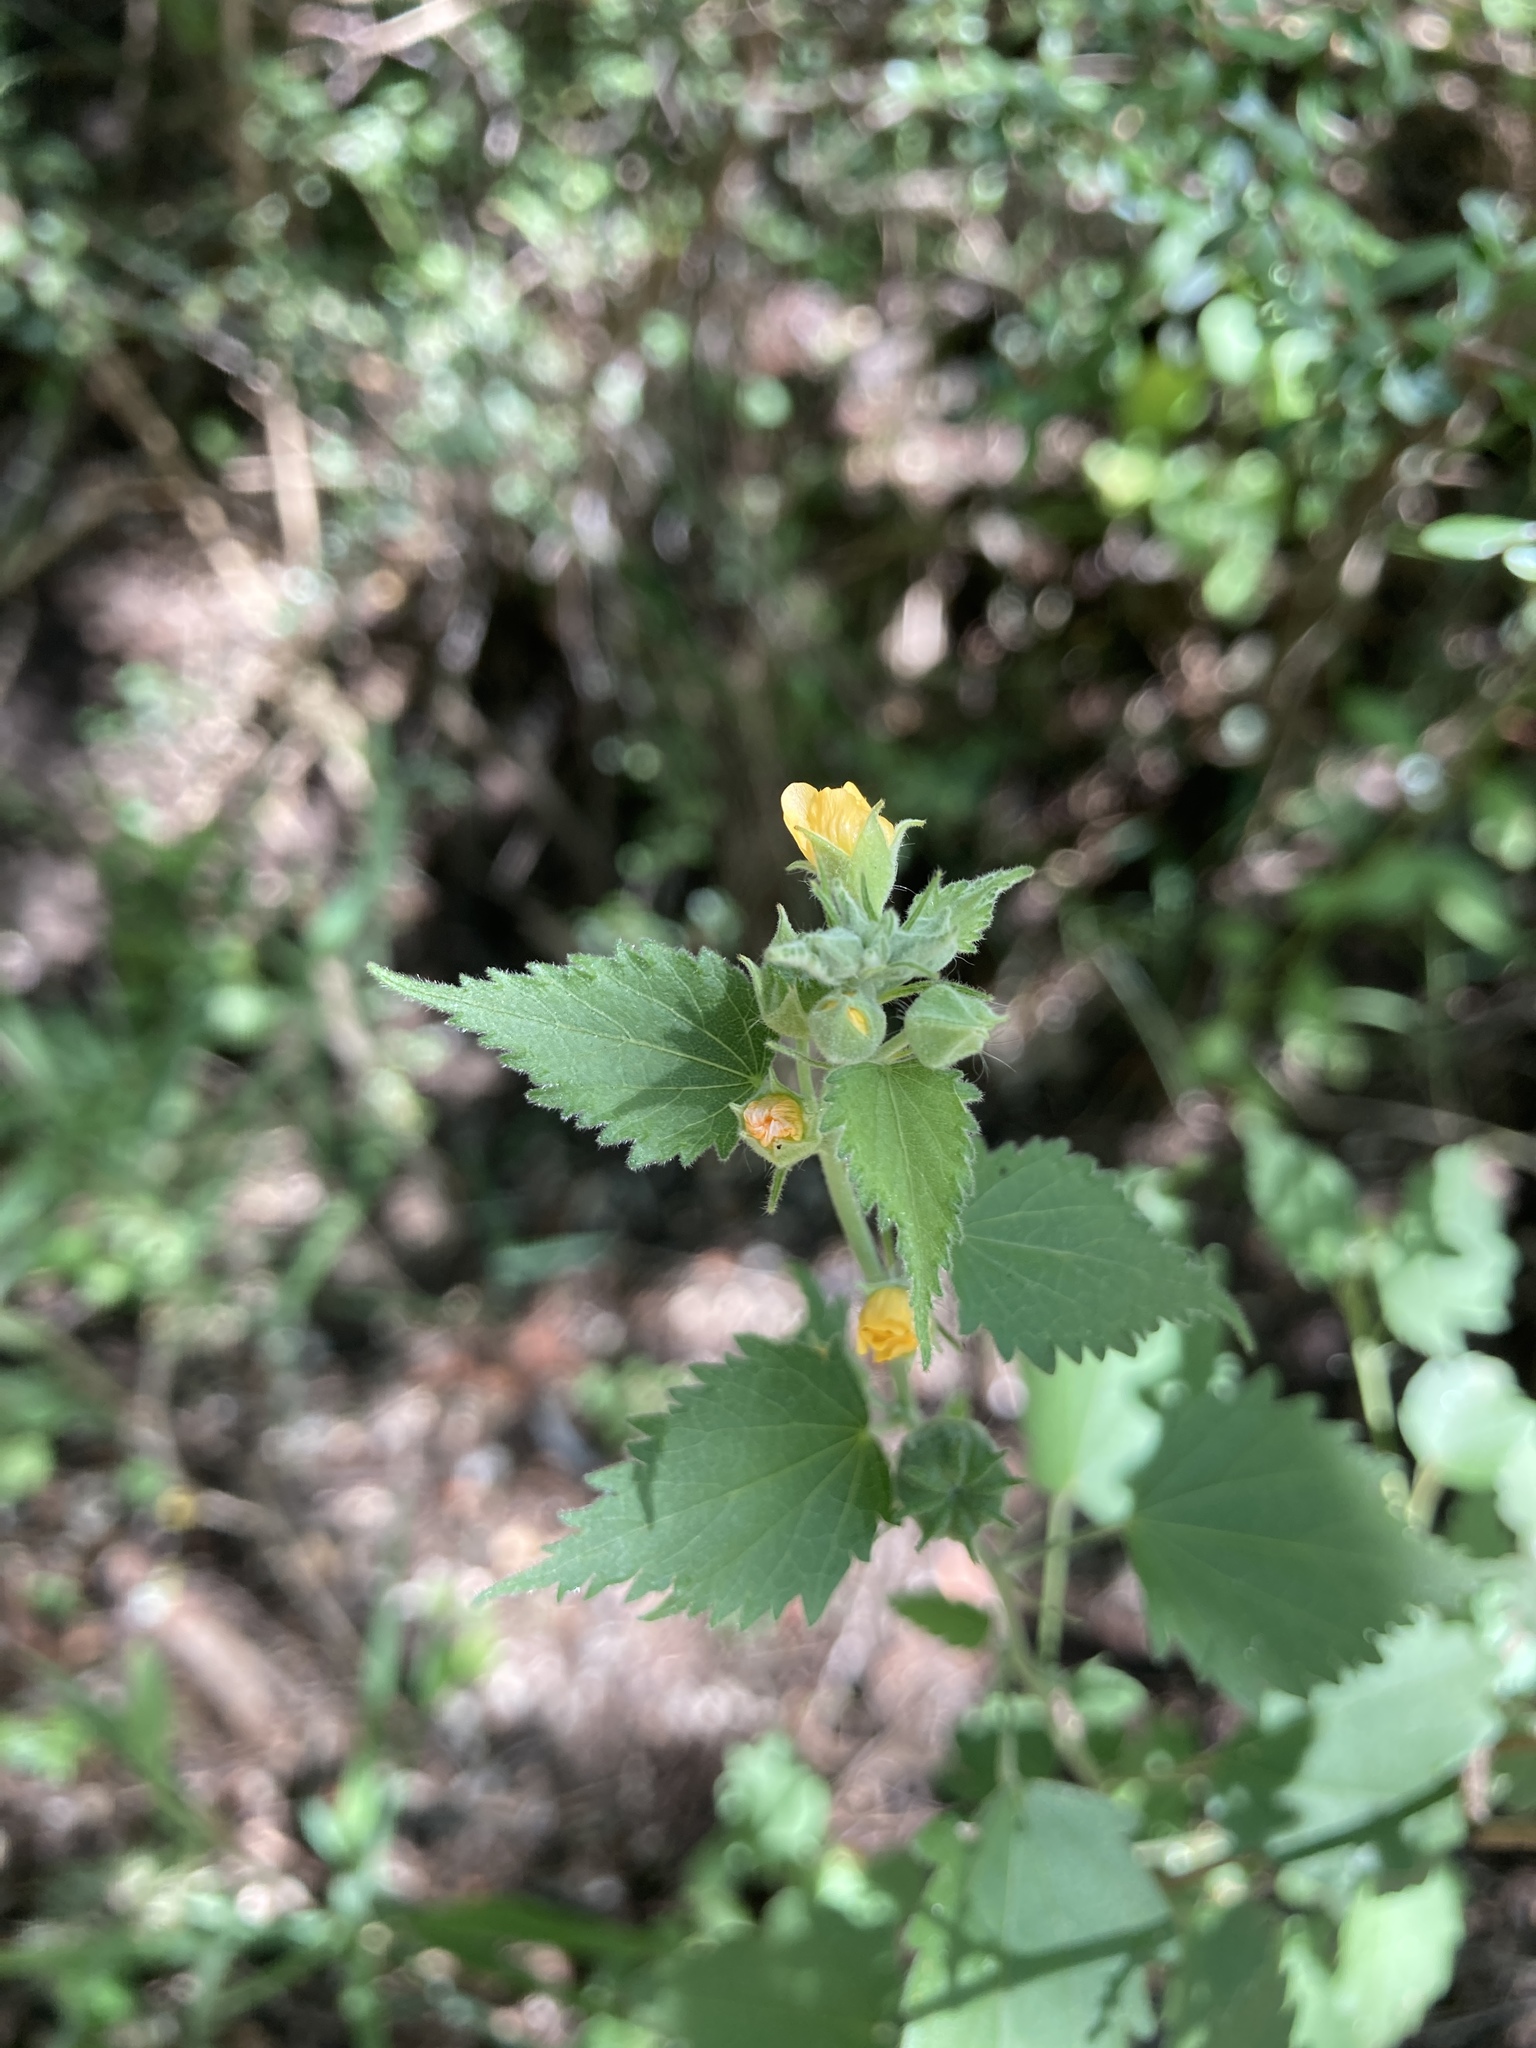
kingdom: Plantae
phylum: Tracheophyta
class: Magnoliopsida
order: Malvales
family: Malvaceae
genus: Pseudabutilon
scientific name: Pseudabutilon virgatum
